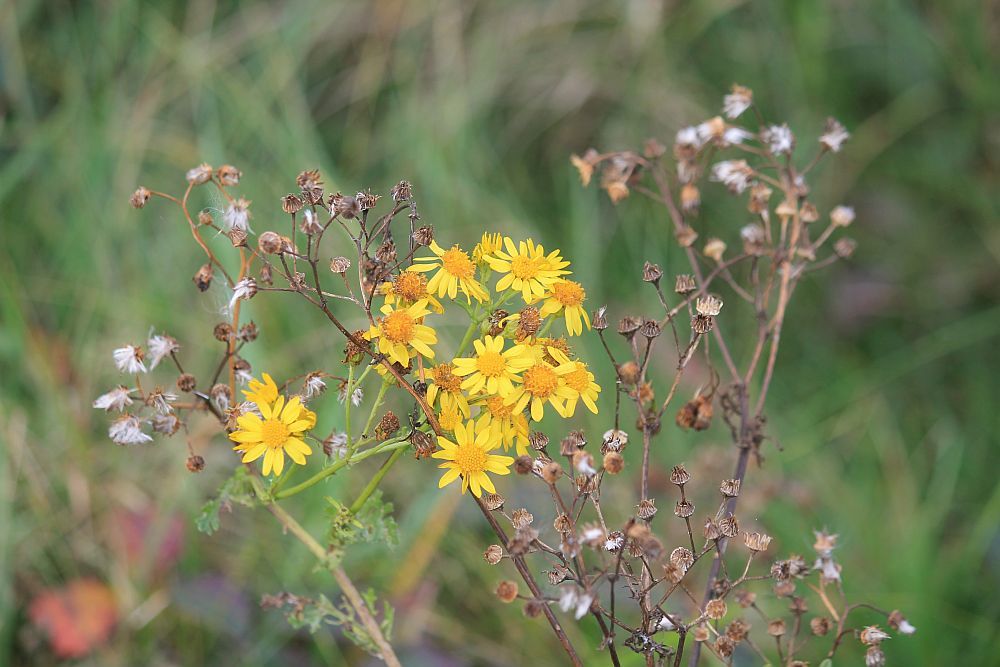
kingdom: Plantae
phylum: Tracheophyta
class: Magnoliopsida
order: Asterales
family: Asteraceae
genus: Jacobaea
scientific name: Jacobaea vulgaris
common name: Stinking willie
